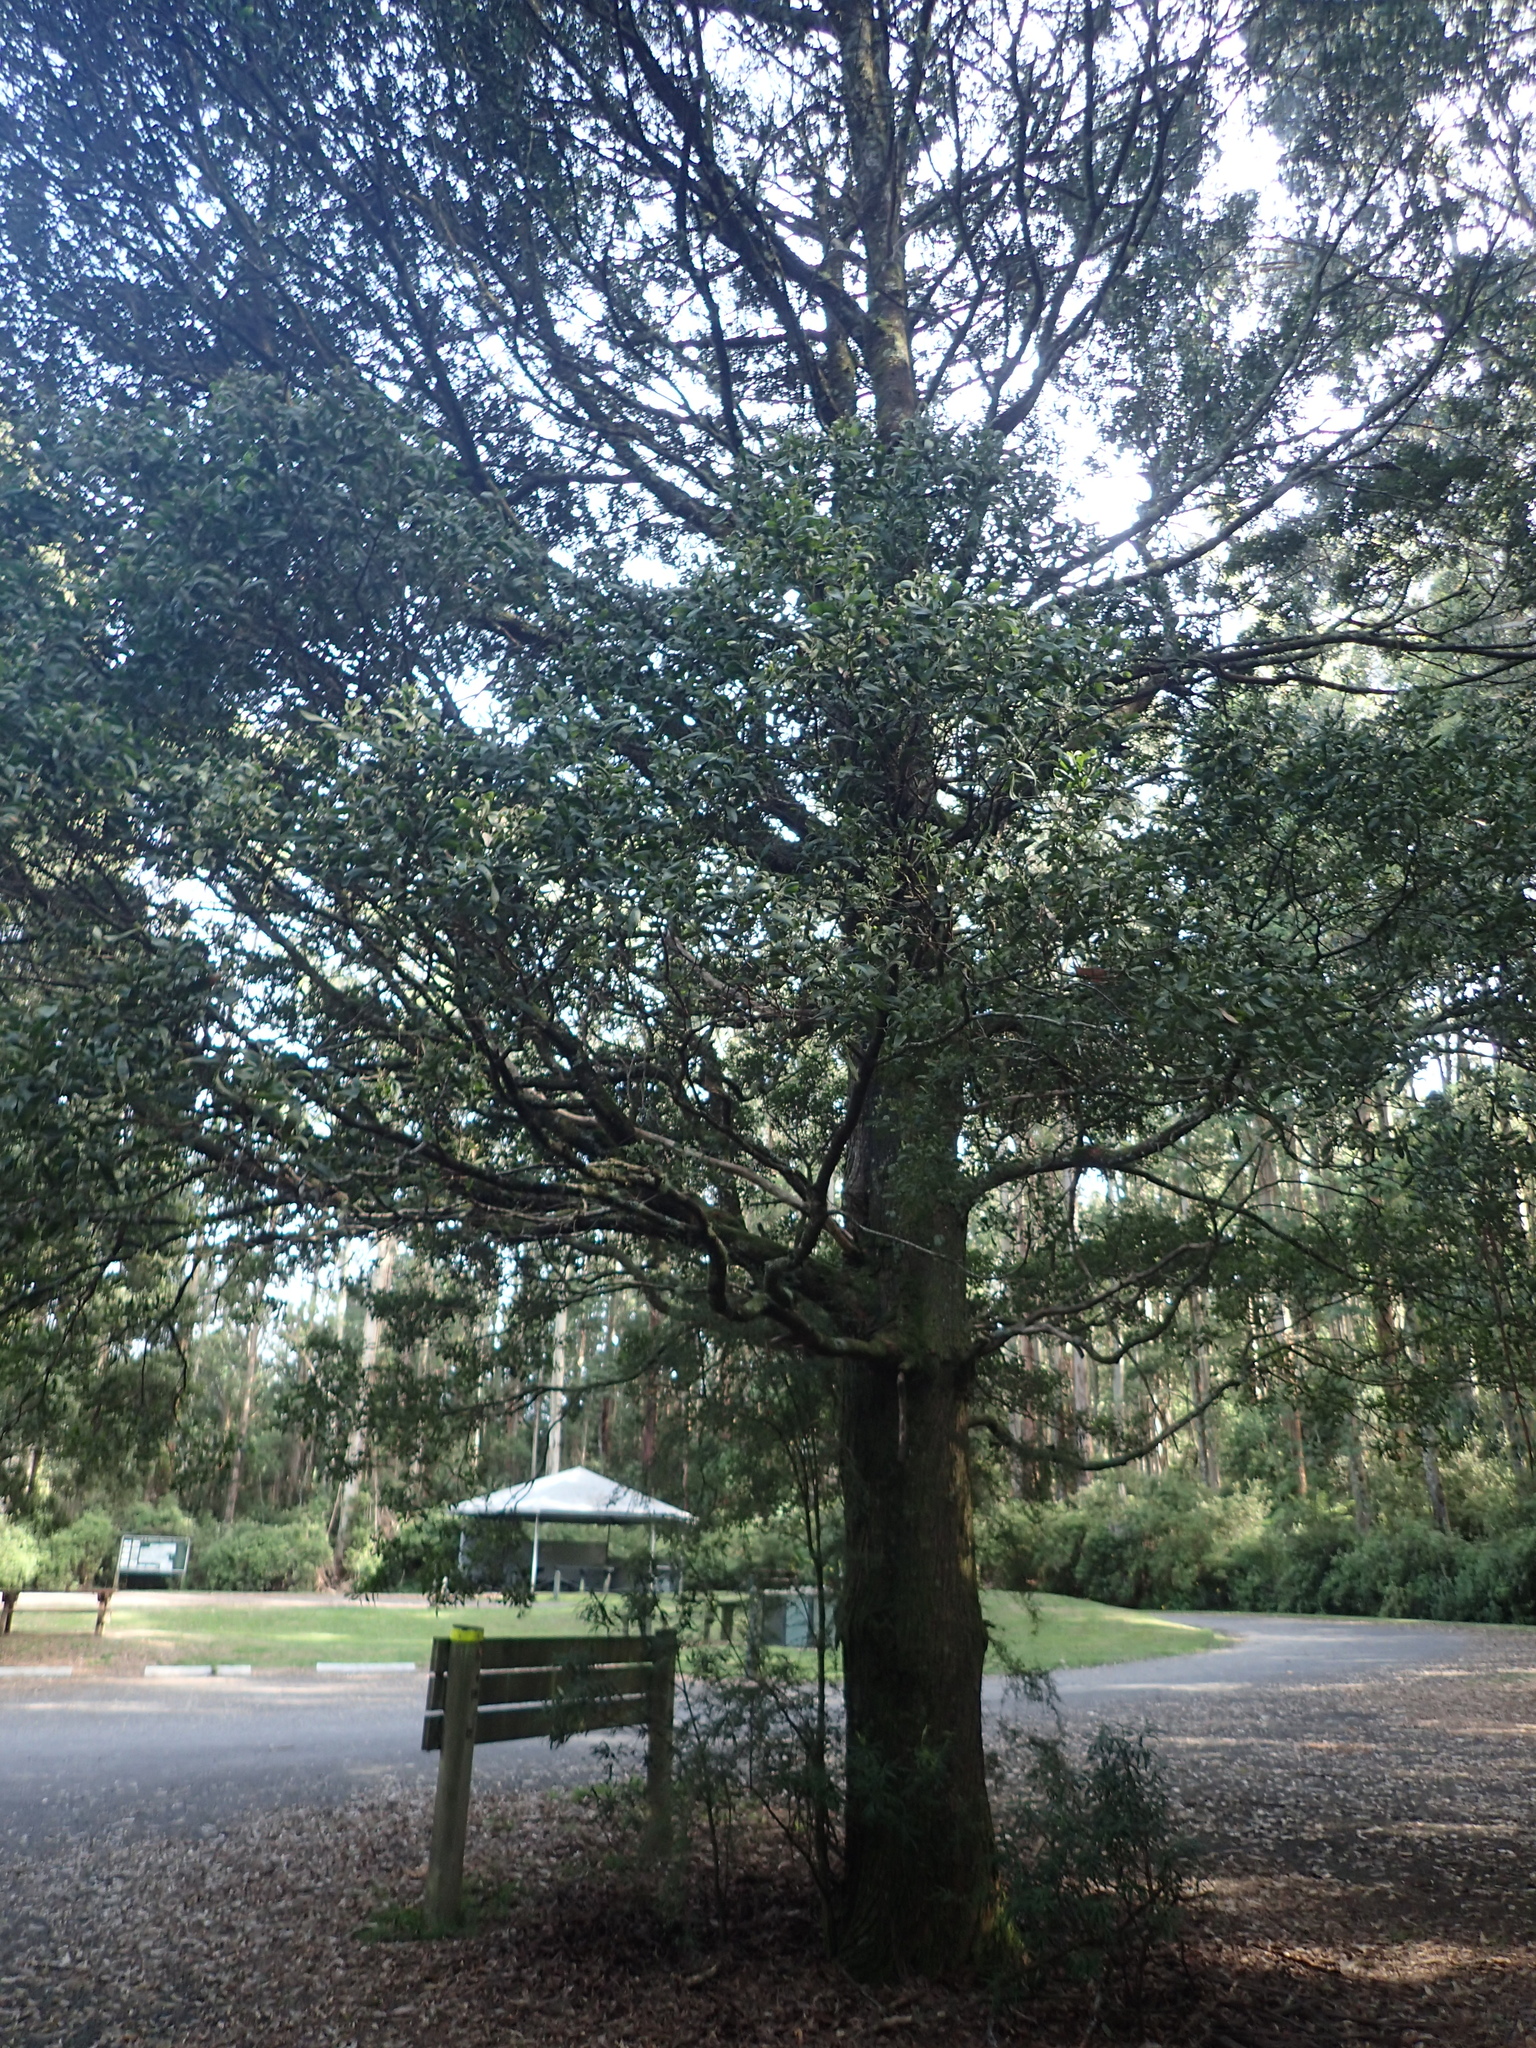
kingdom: Plantae
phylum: Tracheophyta
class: Magnoliopsida
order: Fabales
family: Fabaceae
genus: Acacia
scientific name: Acacia melanoxylon
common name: Blackwood
